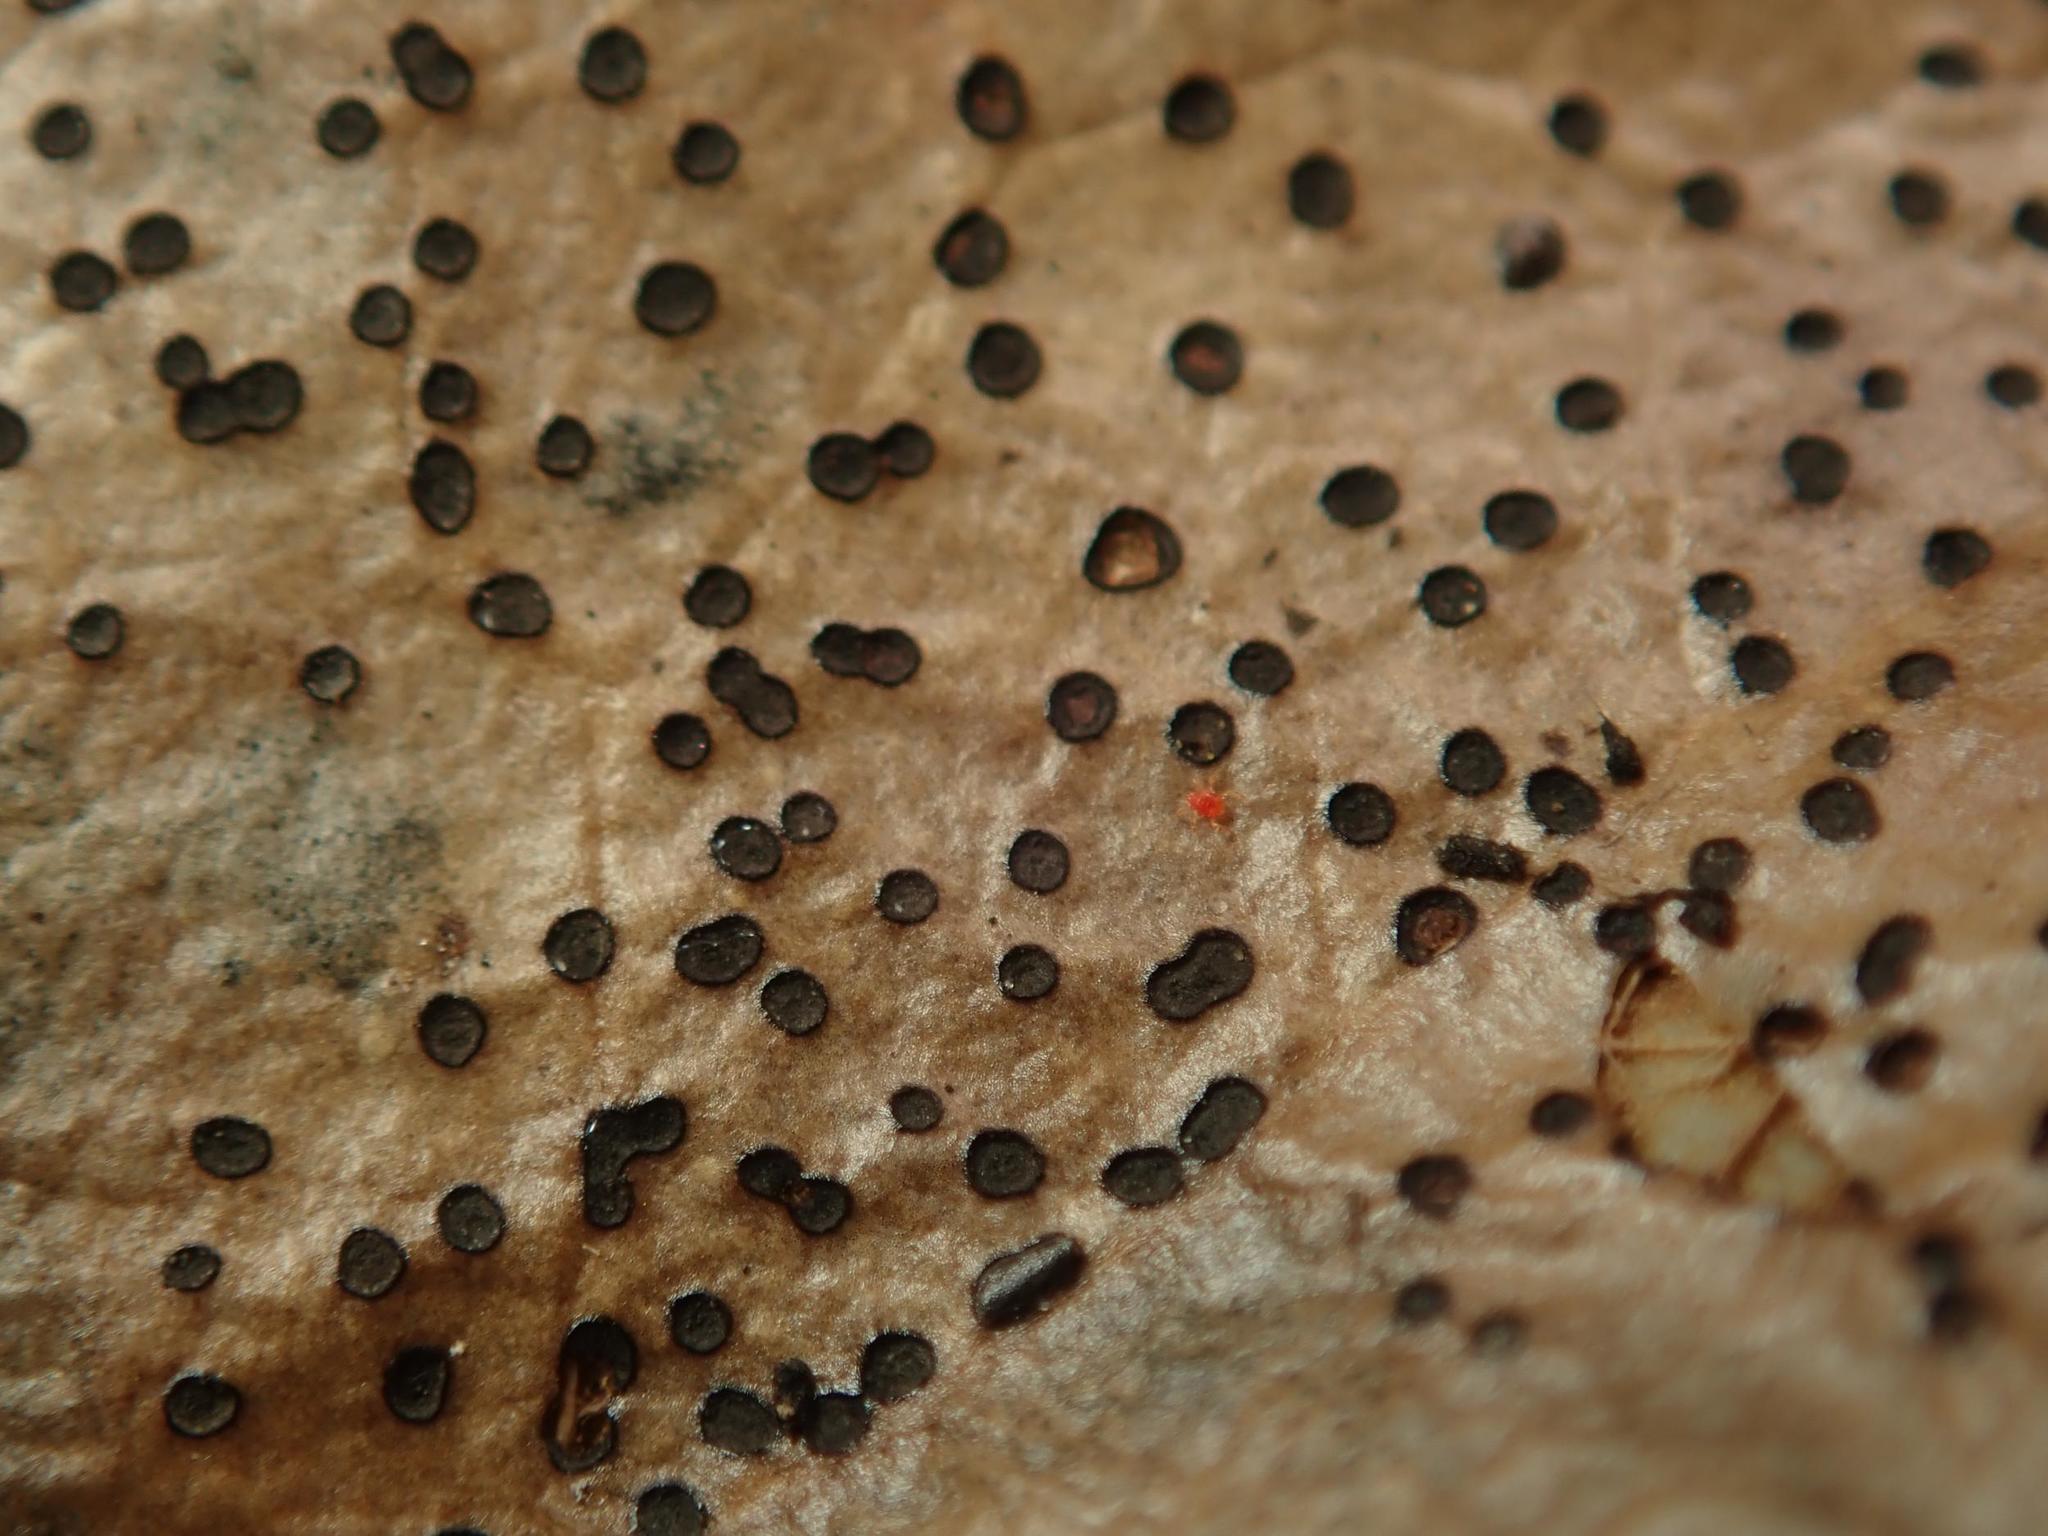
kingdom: Fungi
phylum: Ascomycota
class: Leotiomycetes
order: Helotiales
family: Cenangiaceae
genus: Trochila
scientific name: Trochila ilicina
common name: Holly speckle
